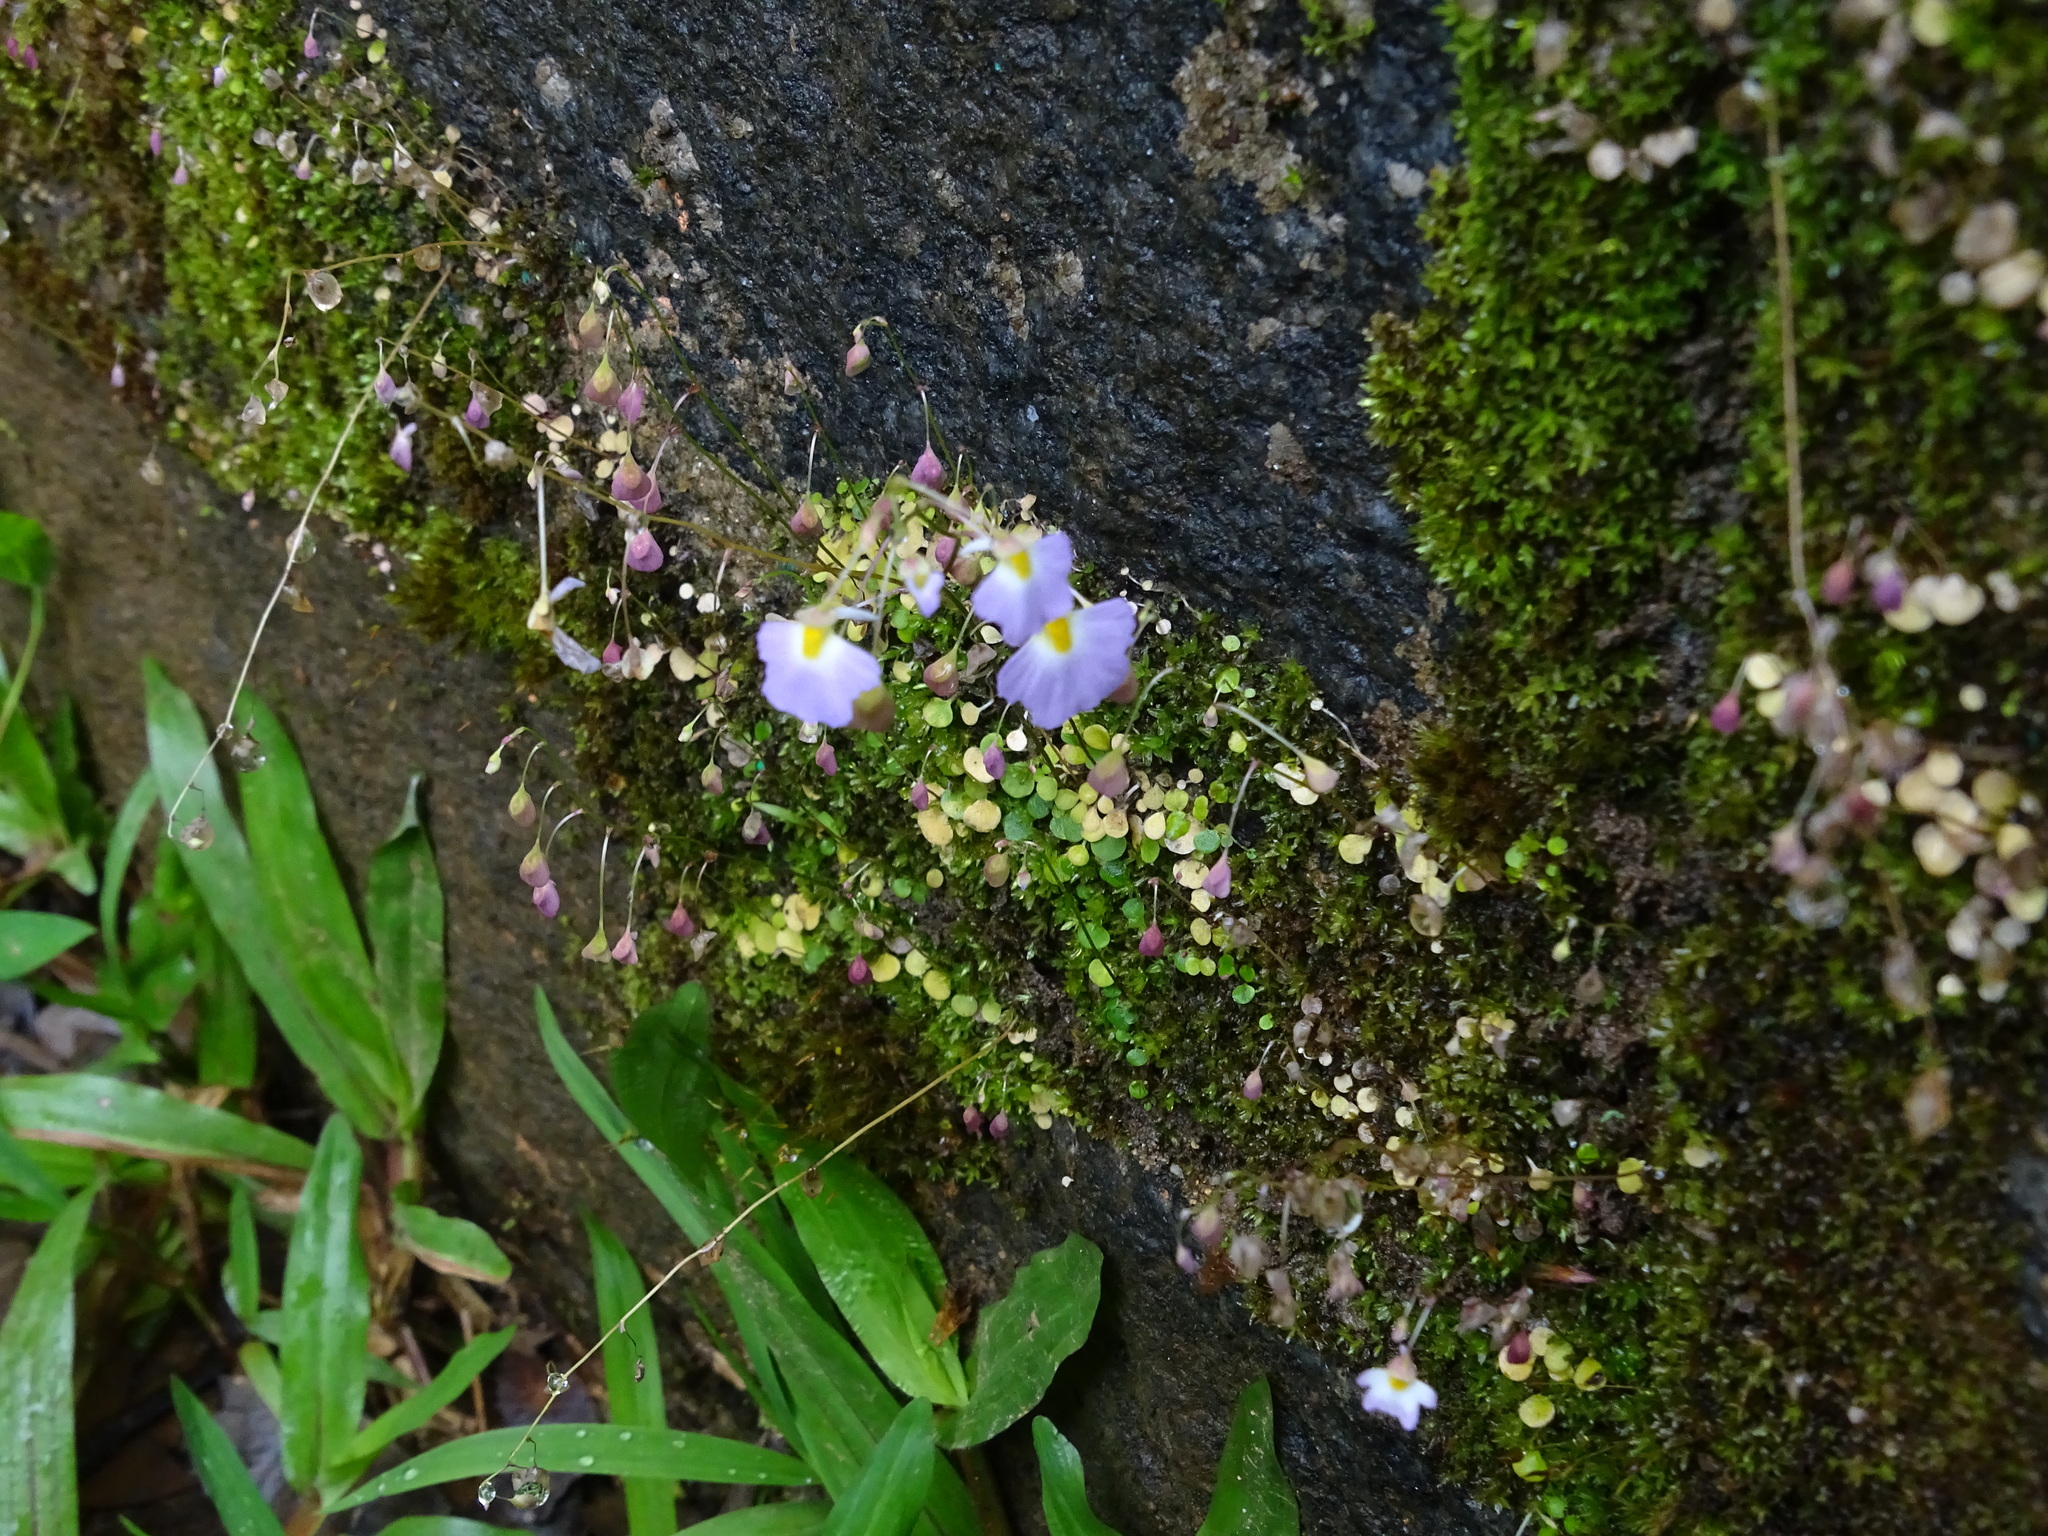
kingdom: Plantae
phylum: Tracheophyta
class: Magnoliopsida
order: Lamiales
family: Lentibulariaceae
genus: Utricularia
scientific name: Utricularia striatula
